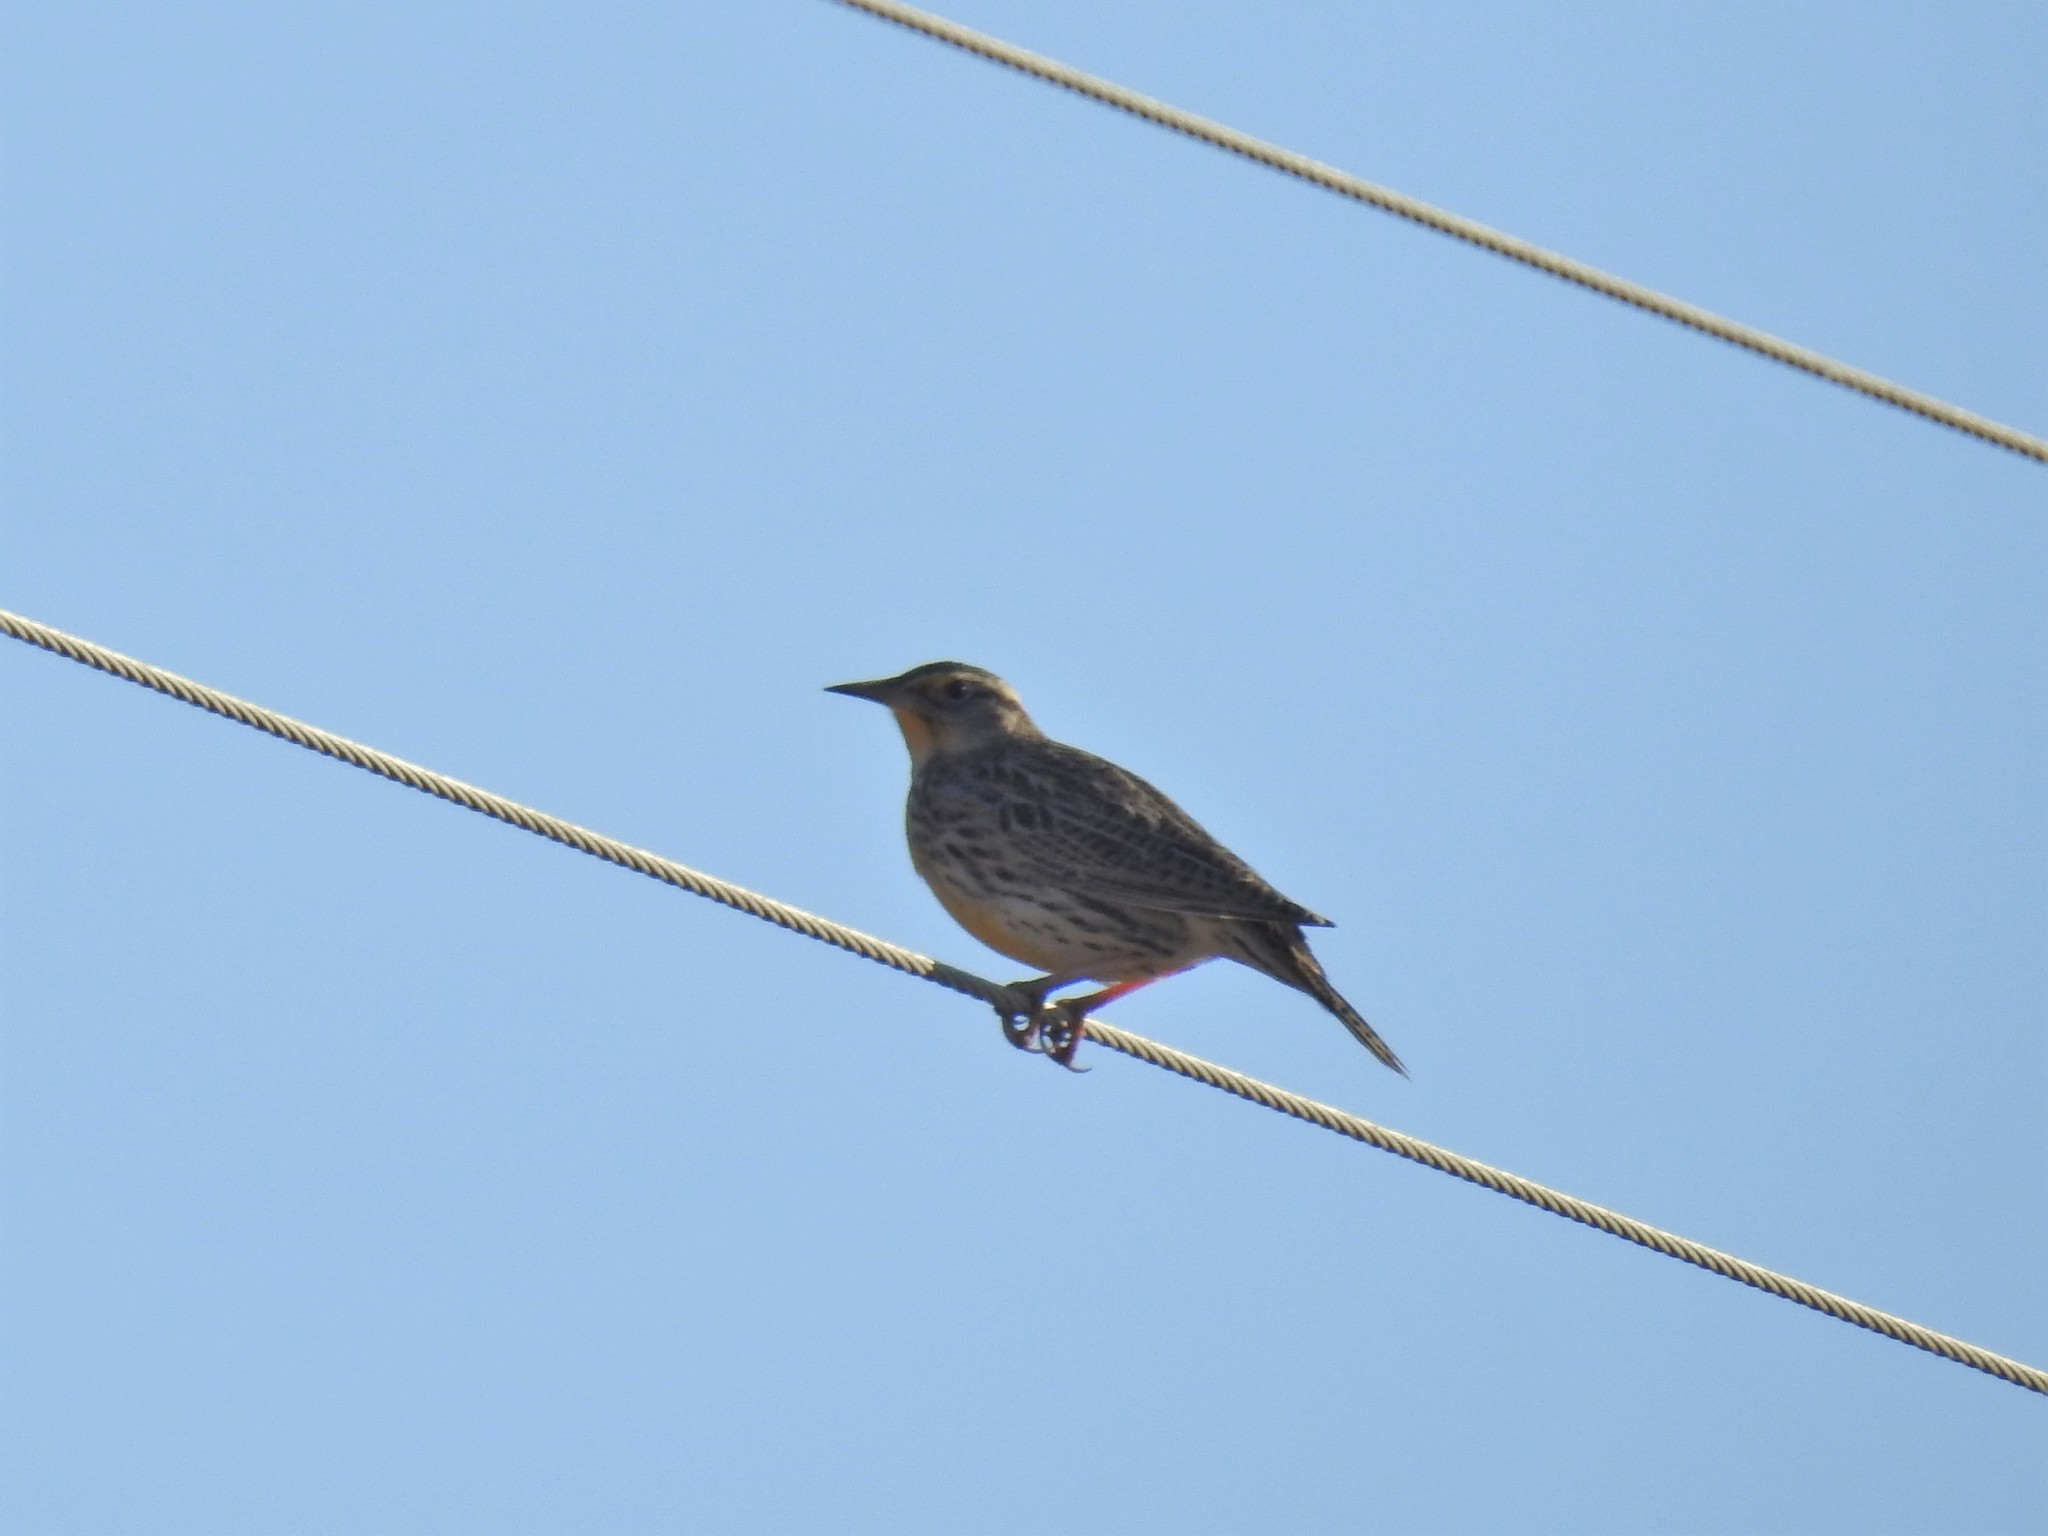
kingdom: Animalia
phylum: Chordata
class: Aves
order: Passeriformes
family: Icteridae
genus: Sturnella
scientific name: Sturnella neglecta
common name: Western meadowlark
